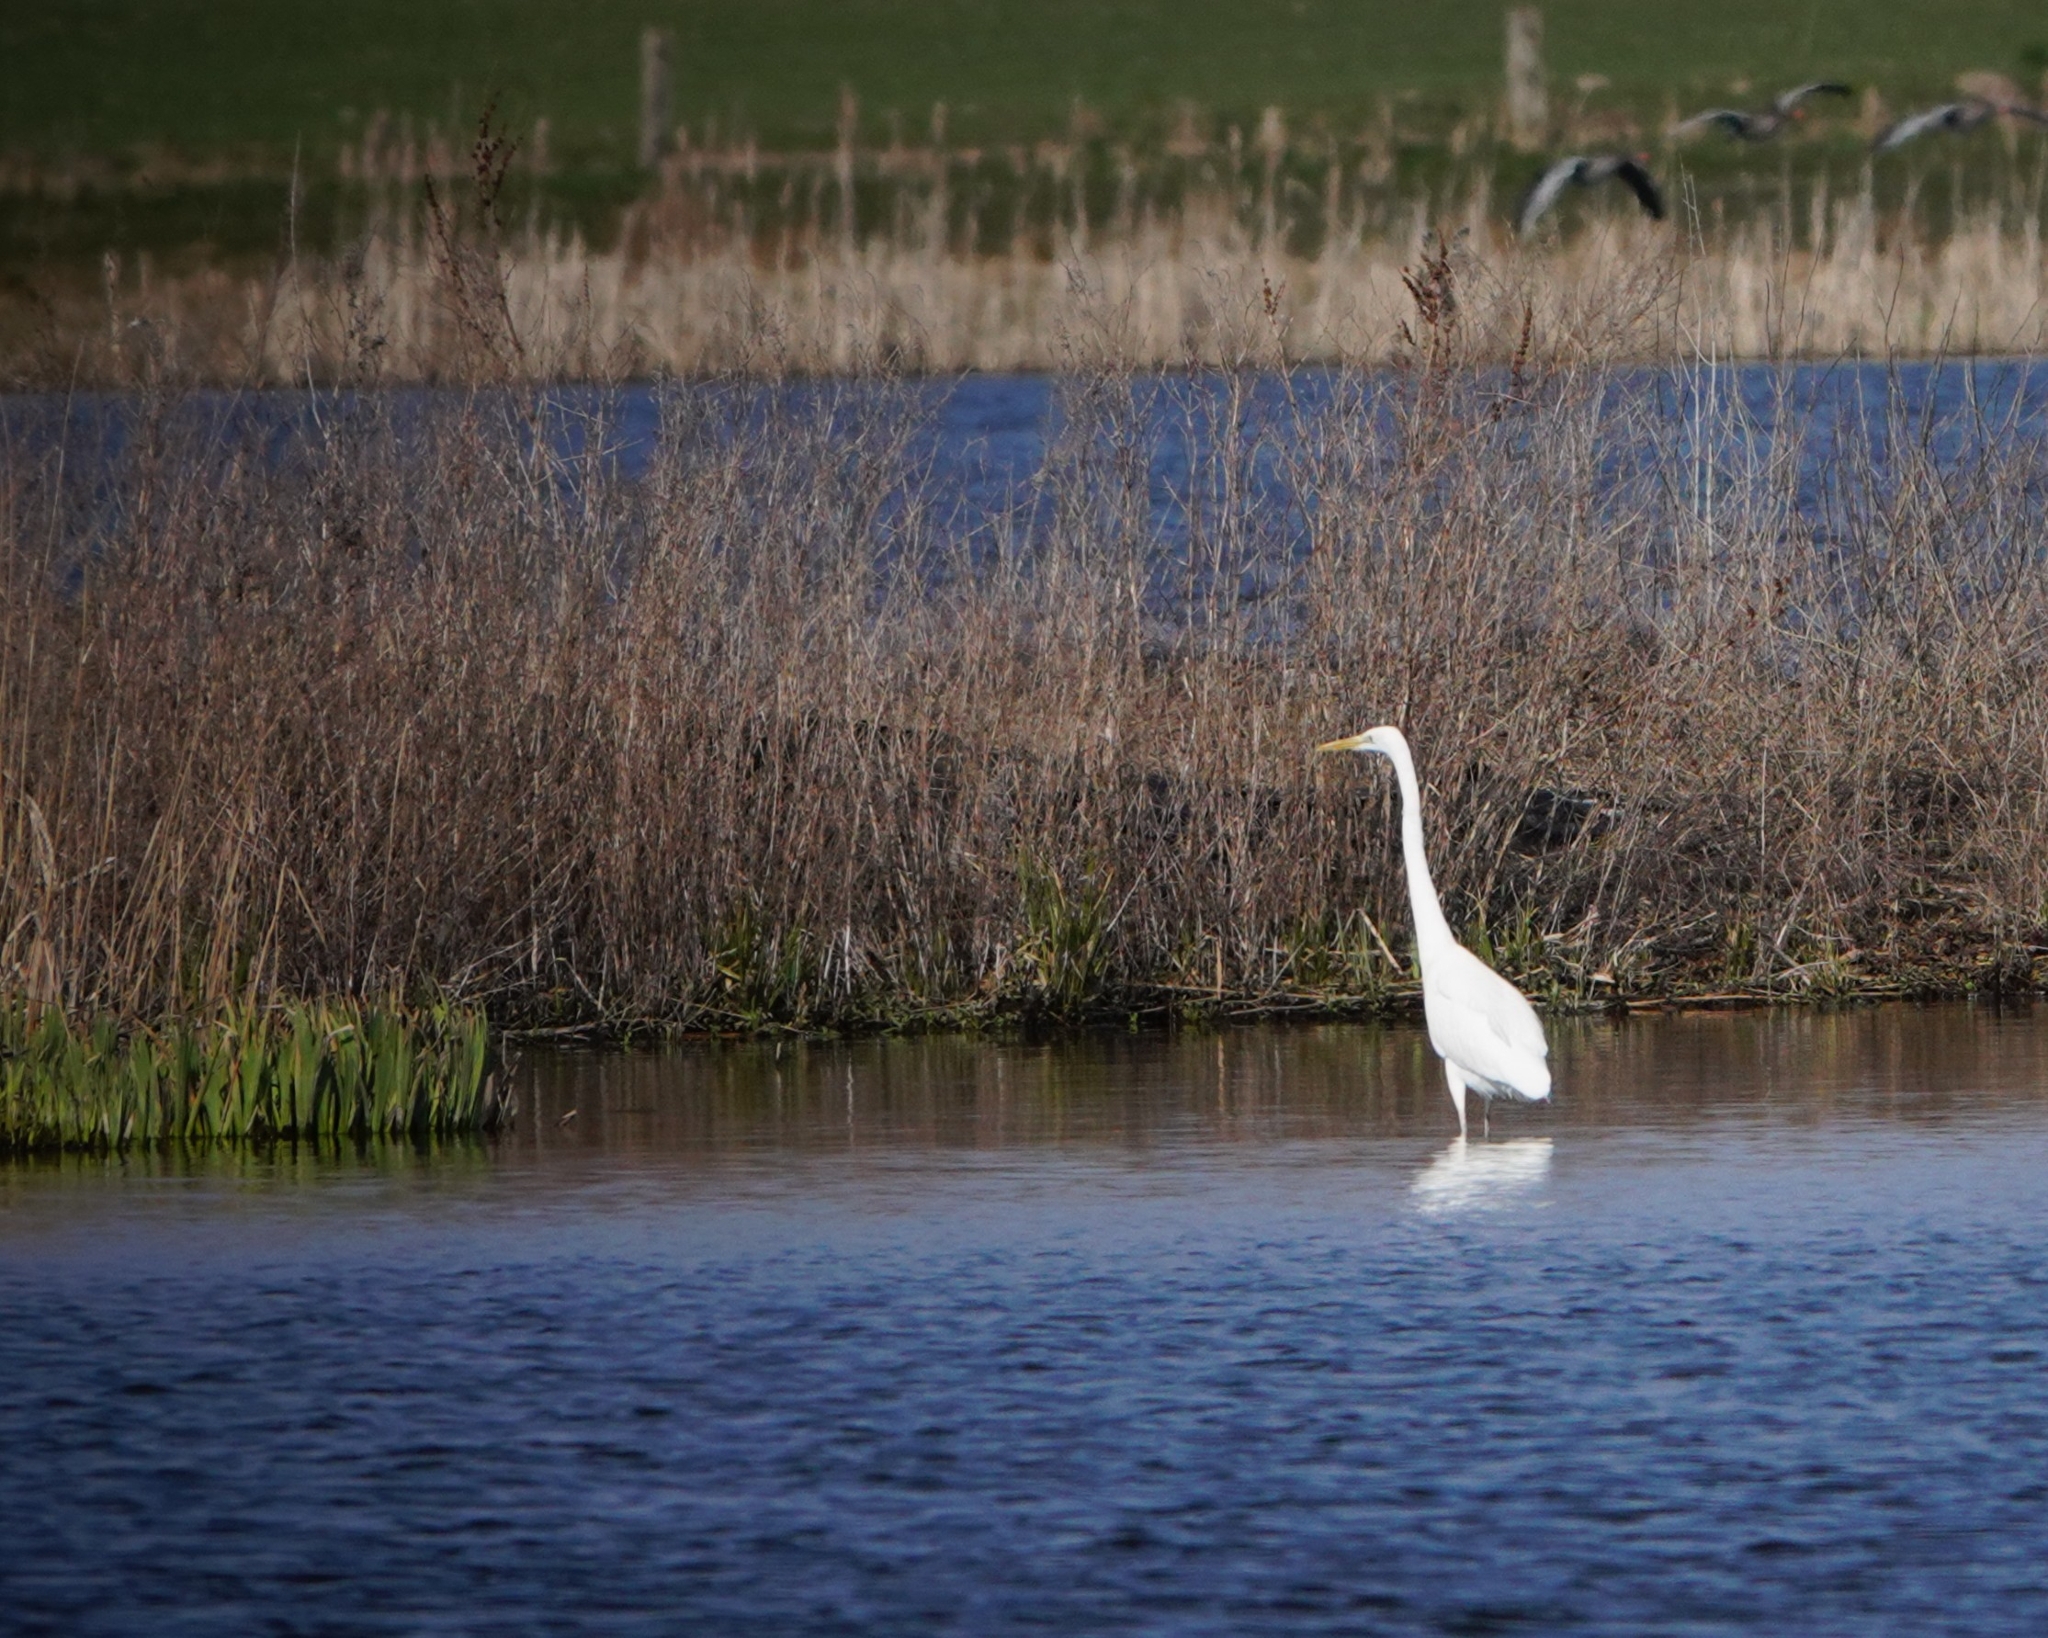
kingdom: Animalia
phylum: Chordata
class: Aves
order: Pelecaniformes
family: Ardeidae
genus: Ardea
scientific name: Ardea alba
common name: Great egret
